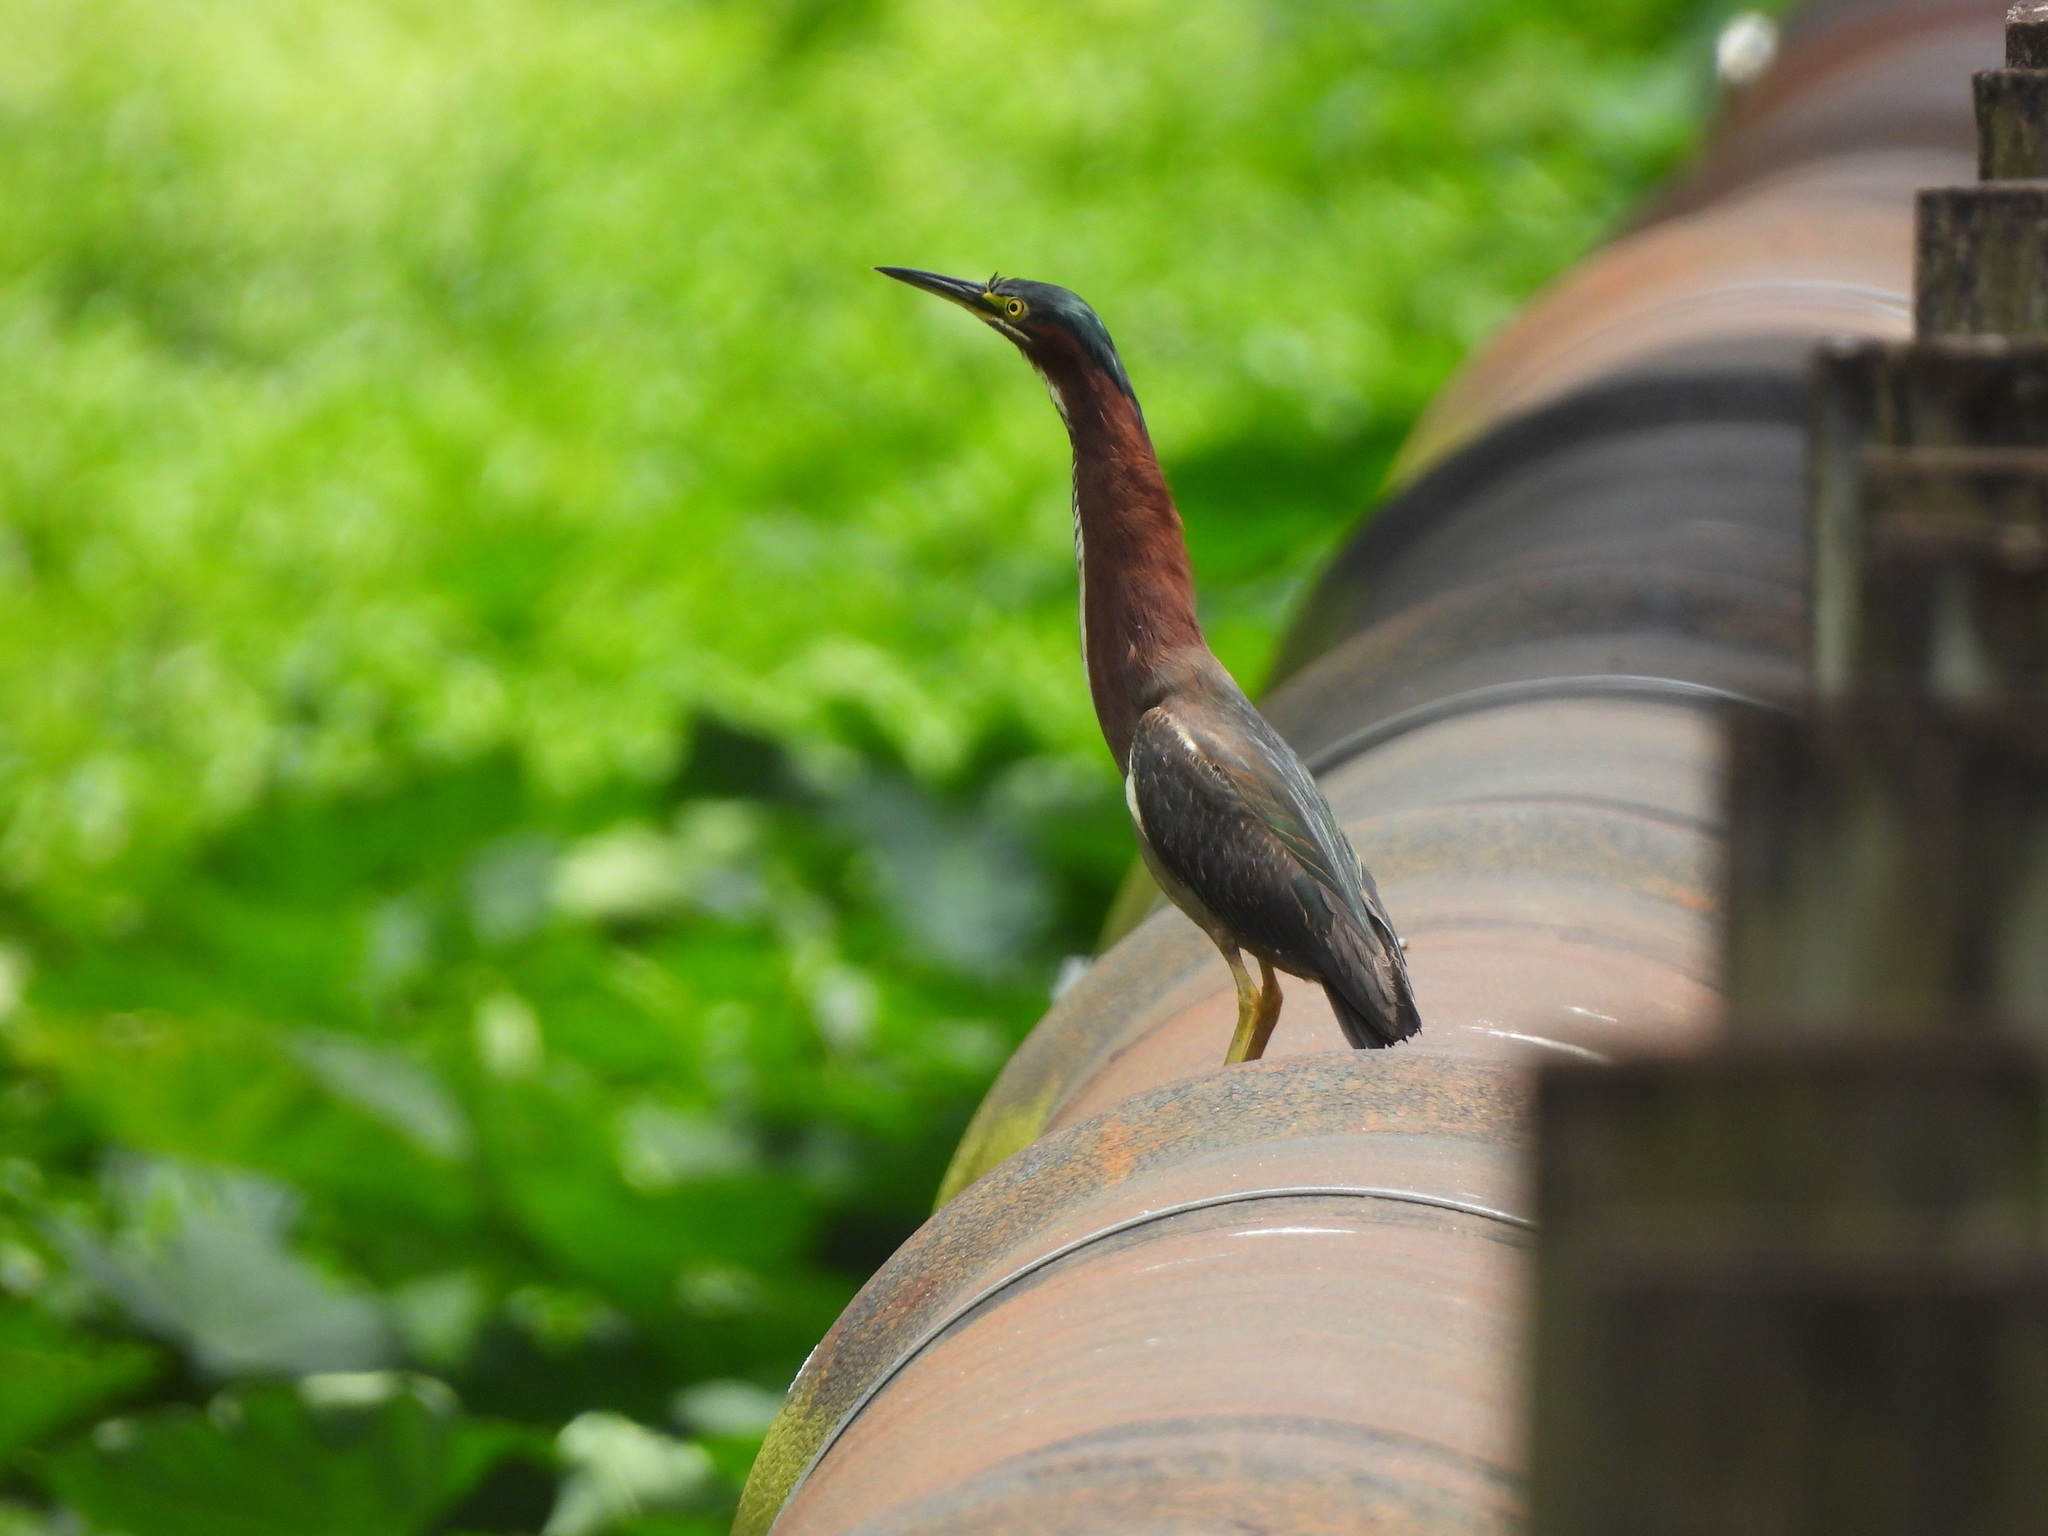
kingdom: Animalia
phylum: Chordata
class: Aves
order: Pelecaniformes
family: Ardeidae
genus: Butorides
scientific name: Butorides virescens
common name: Green heron
